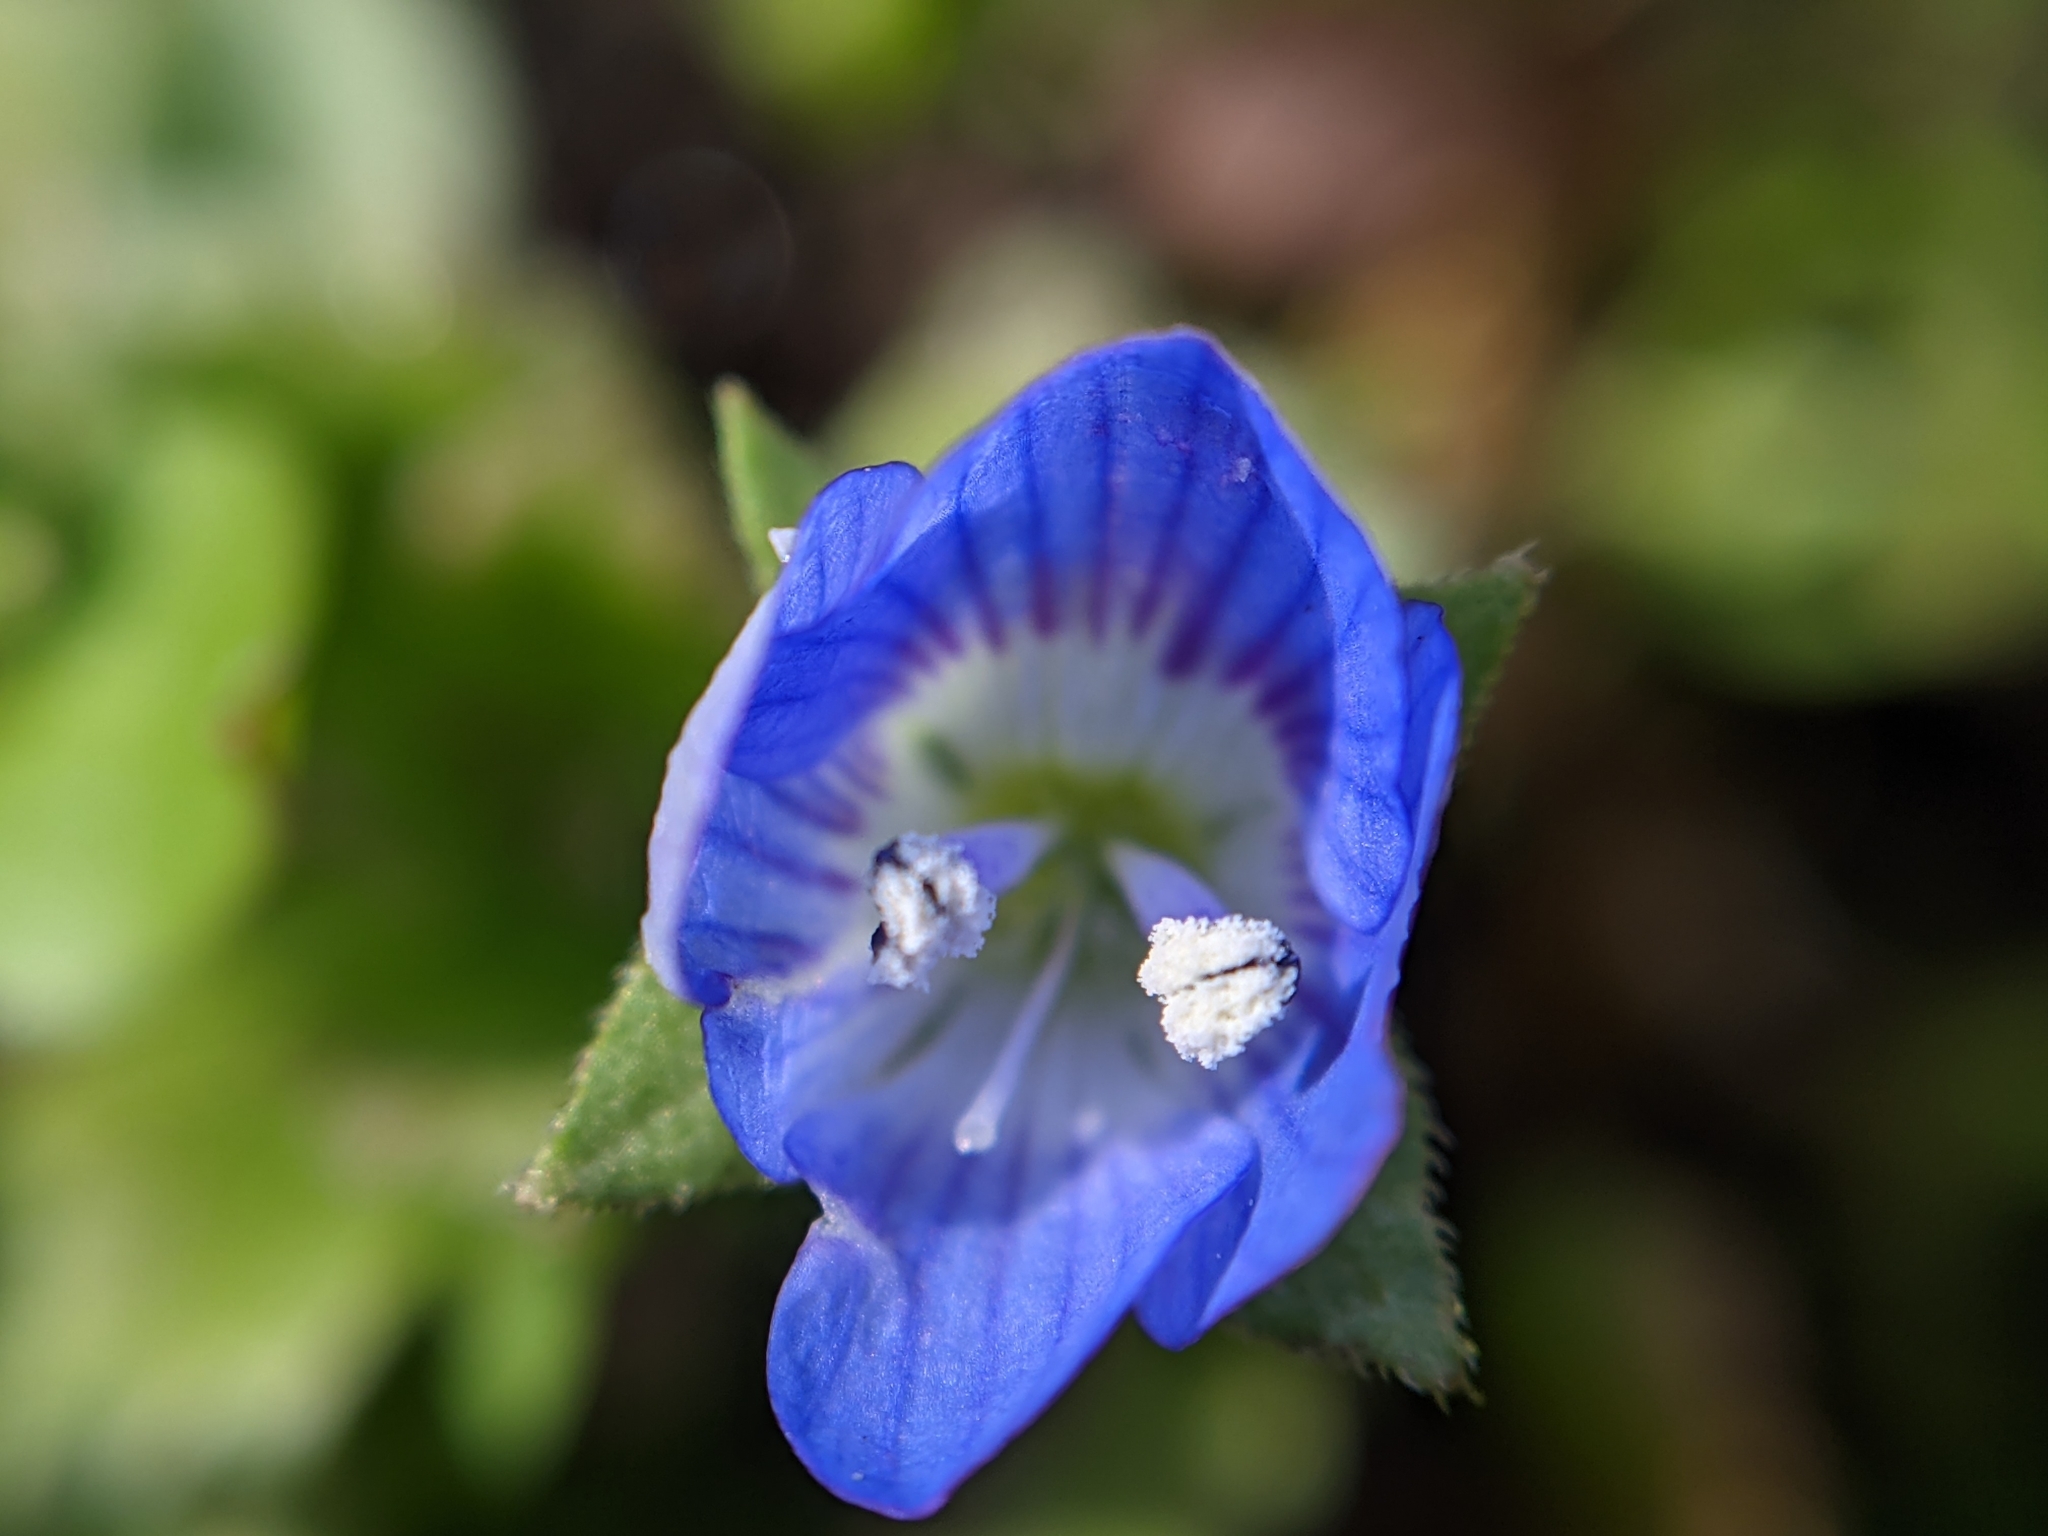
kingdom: Plantae
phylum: Tracheophyta
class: Magnoliopsida
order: Lamiales
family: Plantaginaceae
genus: Veronica
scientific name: Veronica persica
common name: Common field-speedwell
